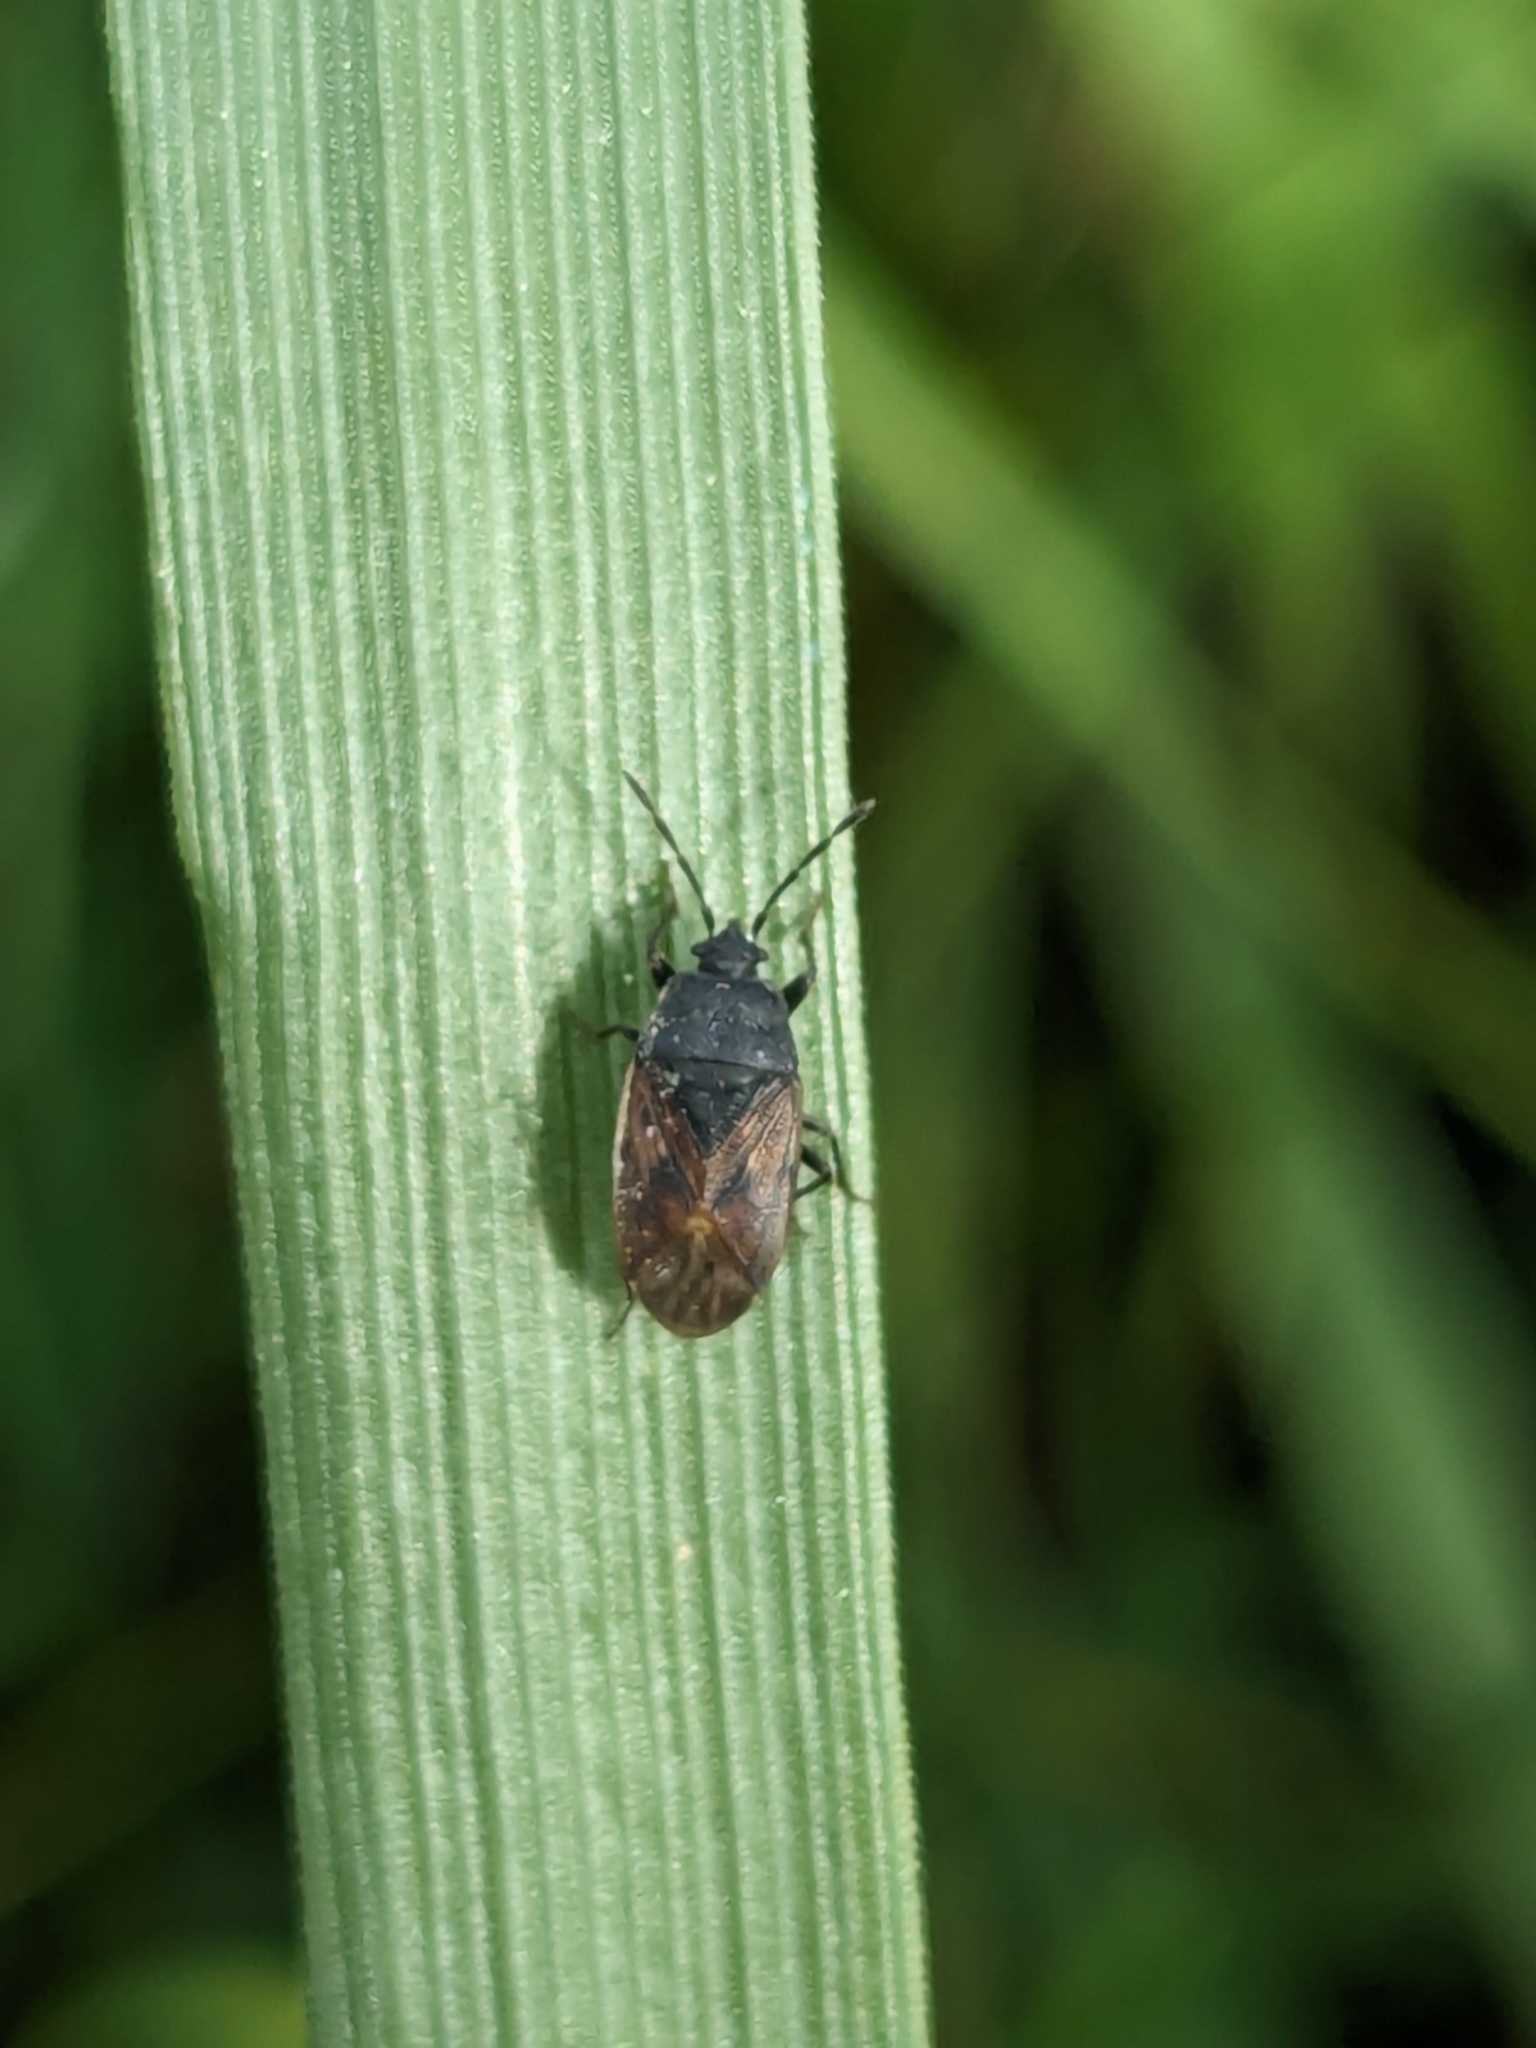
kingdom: Animalia
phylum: Arthropoda
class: Insecta
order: Hemiptera
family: Rhyparochromidae
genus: Drymus
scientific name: Drymus sylvaticus
